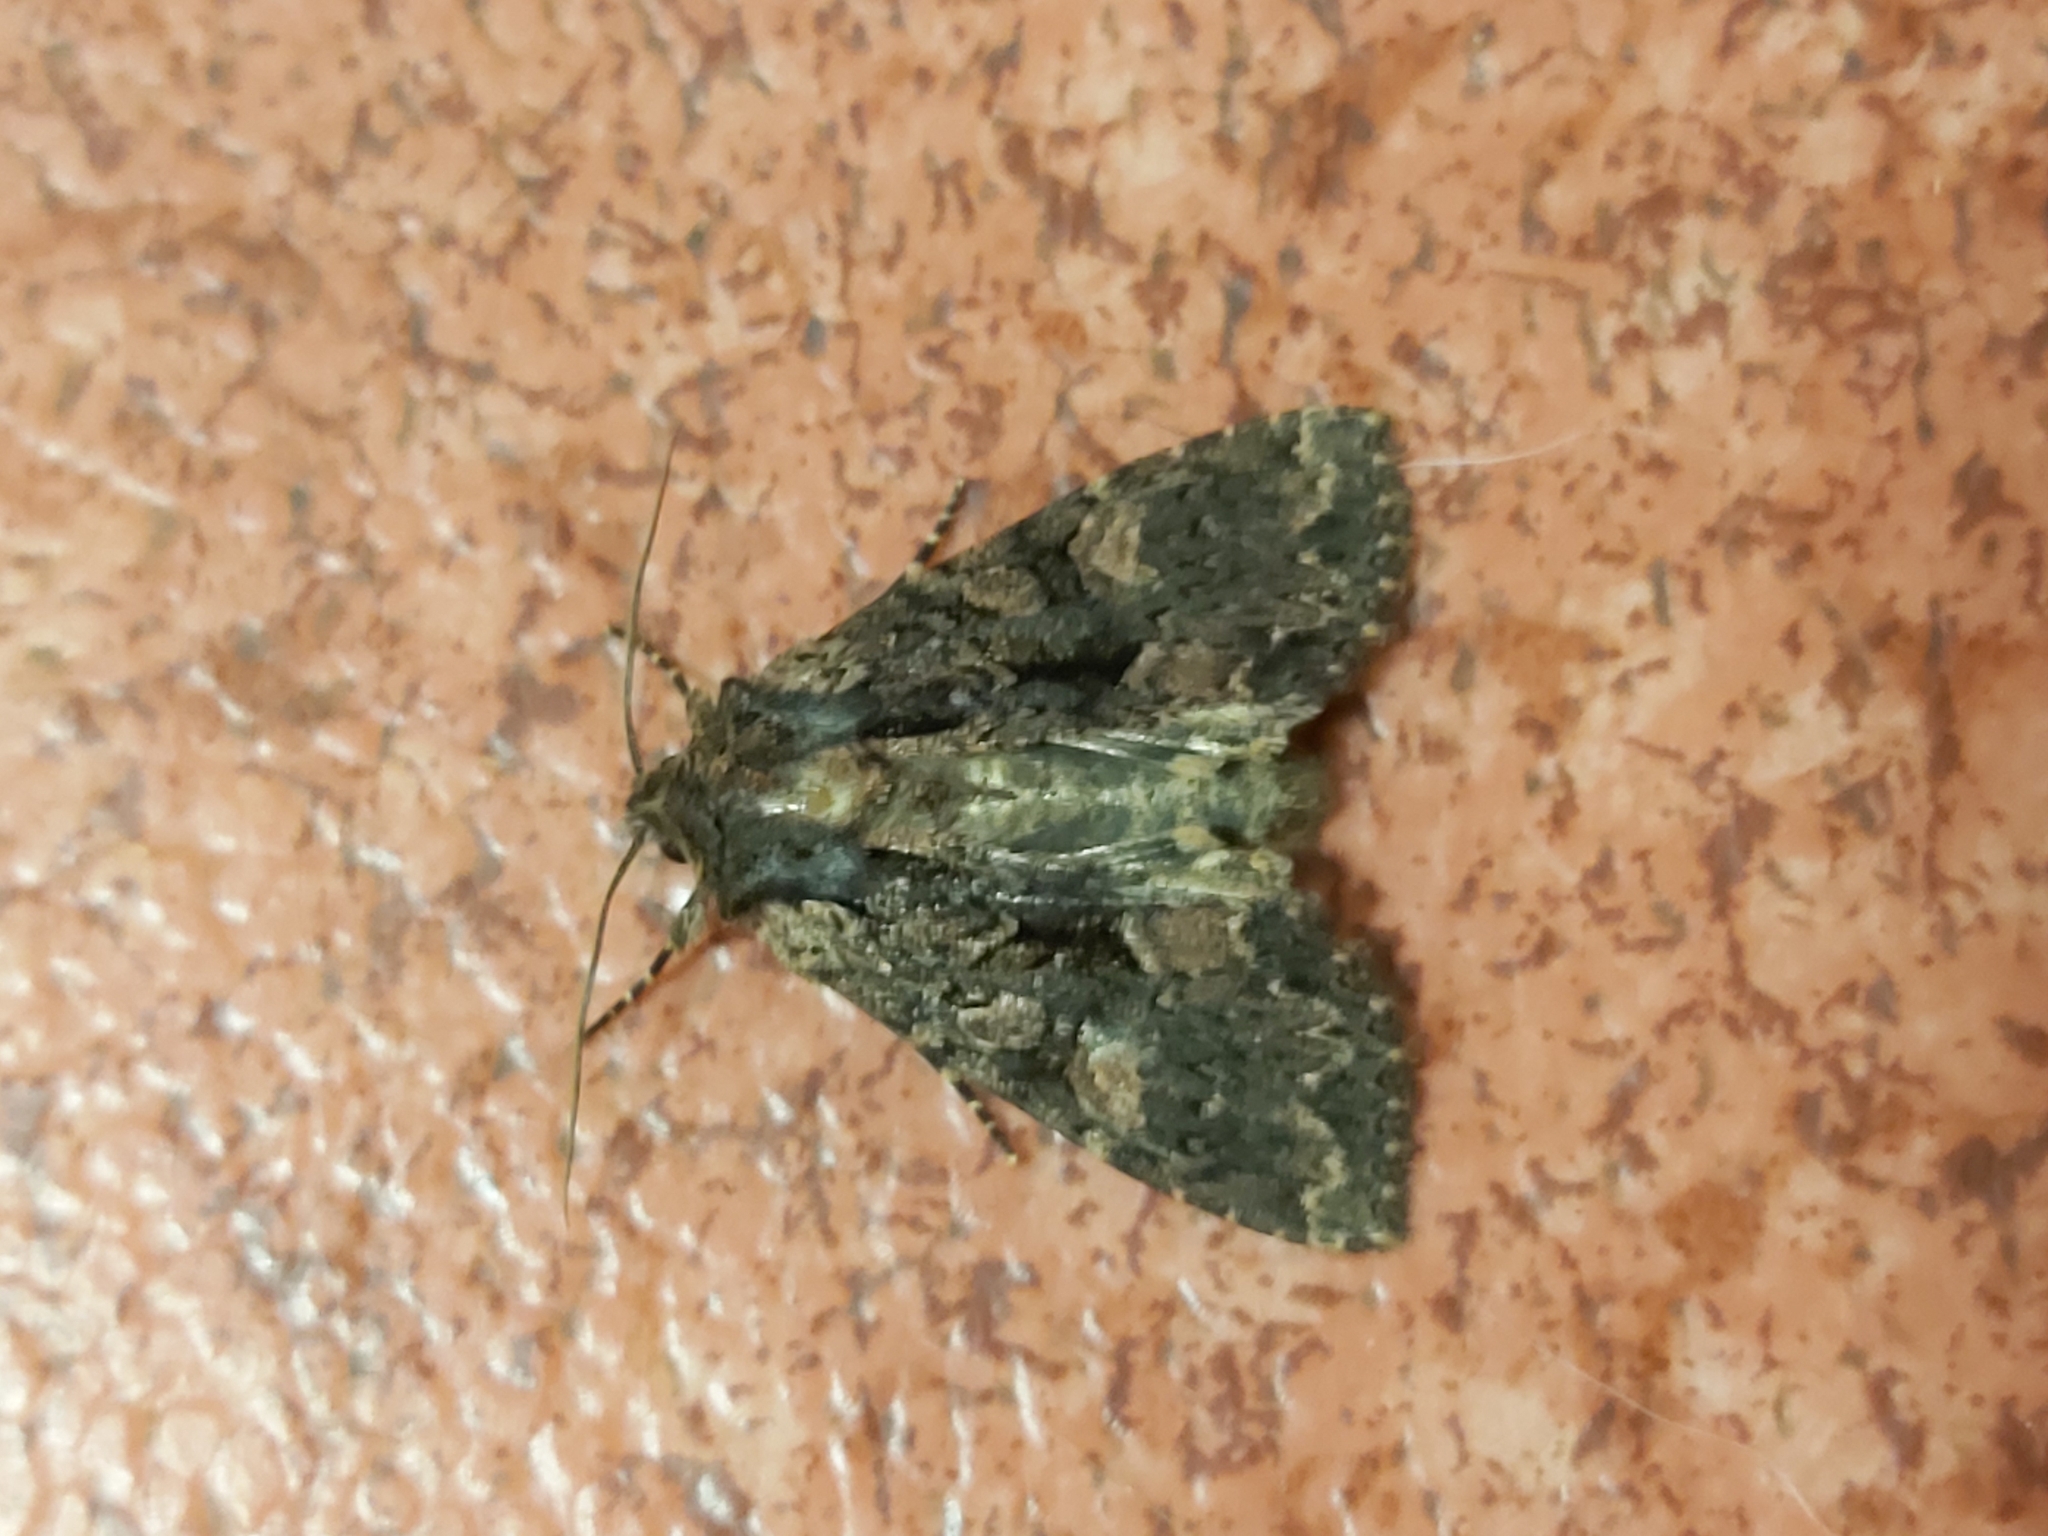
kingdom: Animalia
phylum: Arthropoda
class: Insecta
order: Lepidoptera
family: Noctuidae
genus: Mniotype
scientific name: Mniotype satura
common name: Beautiful arches
